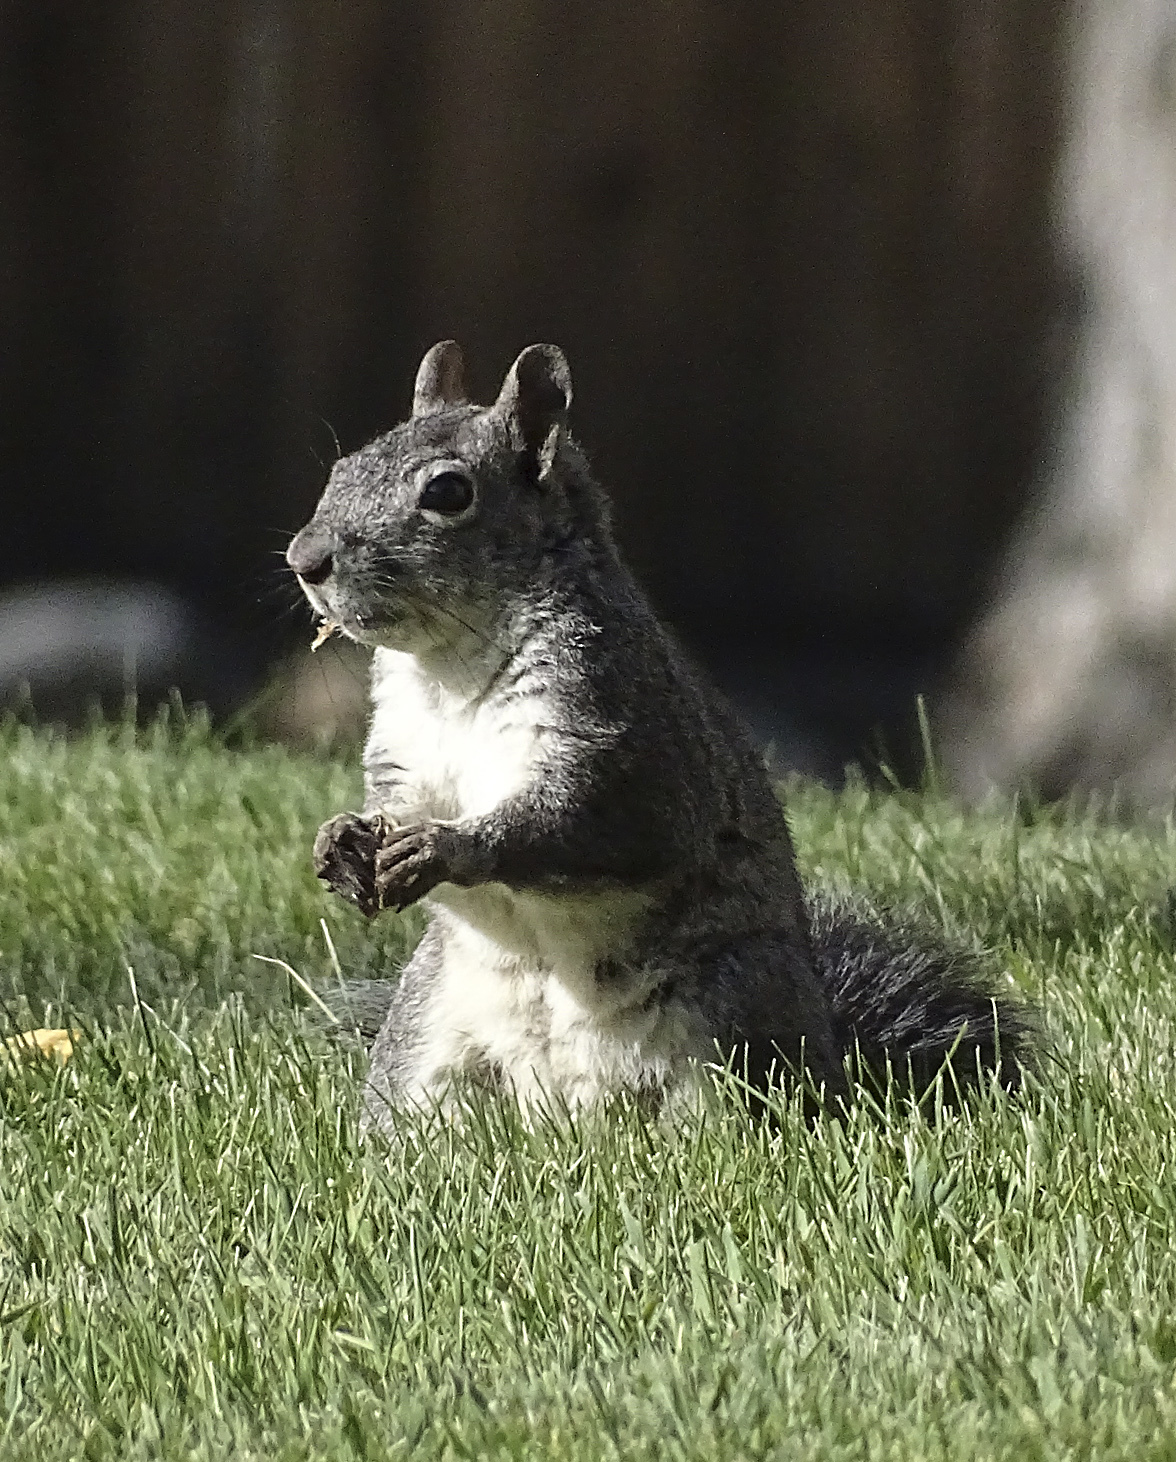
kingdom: Animalia
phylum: Chordata
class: Mammalia
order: Rodentia
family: Sciuridae
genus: Sciurus
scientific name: Sciurus griseus
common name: Western gray squirrel
